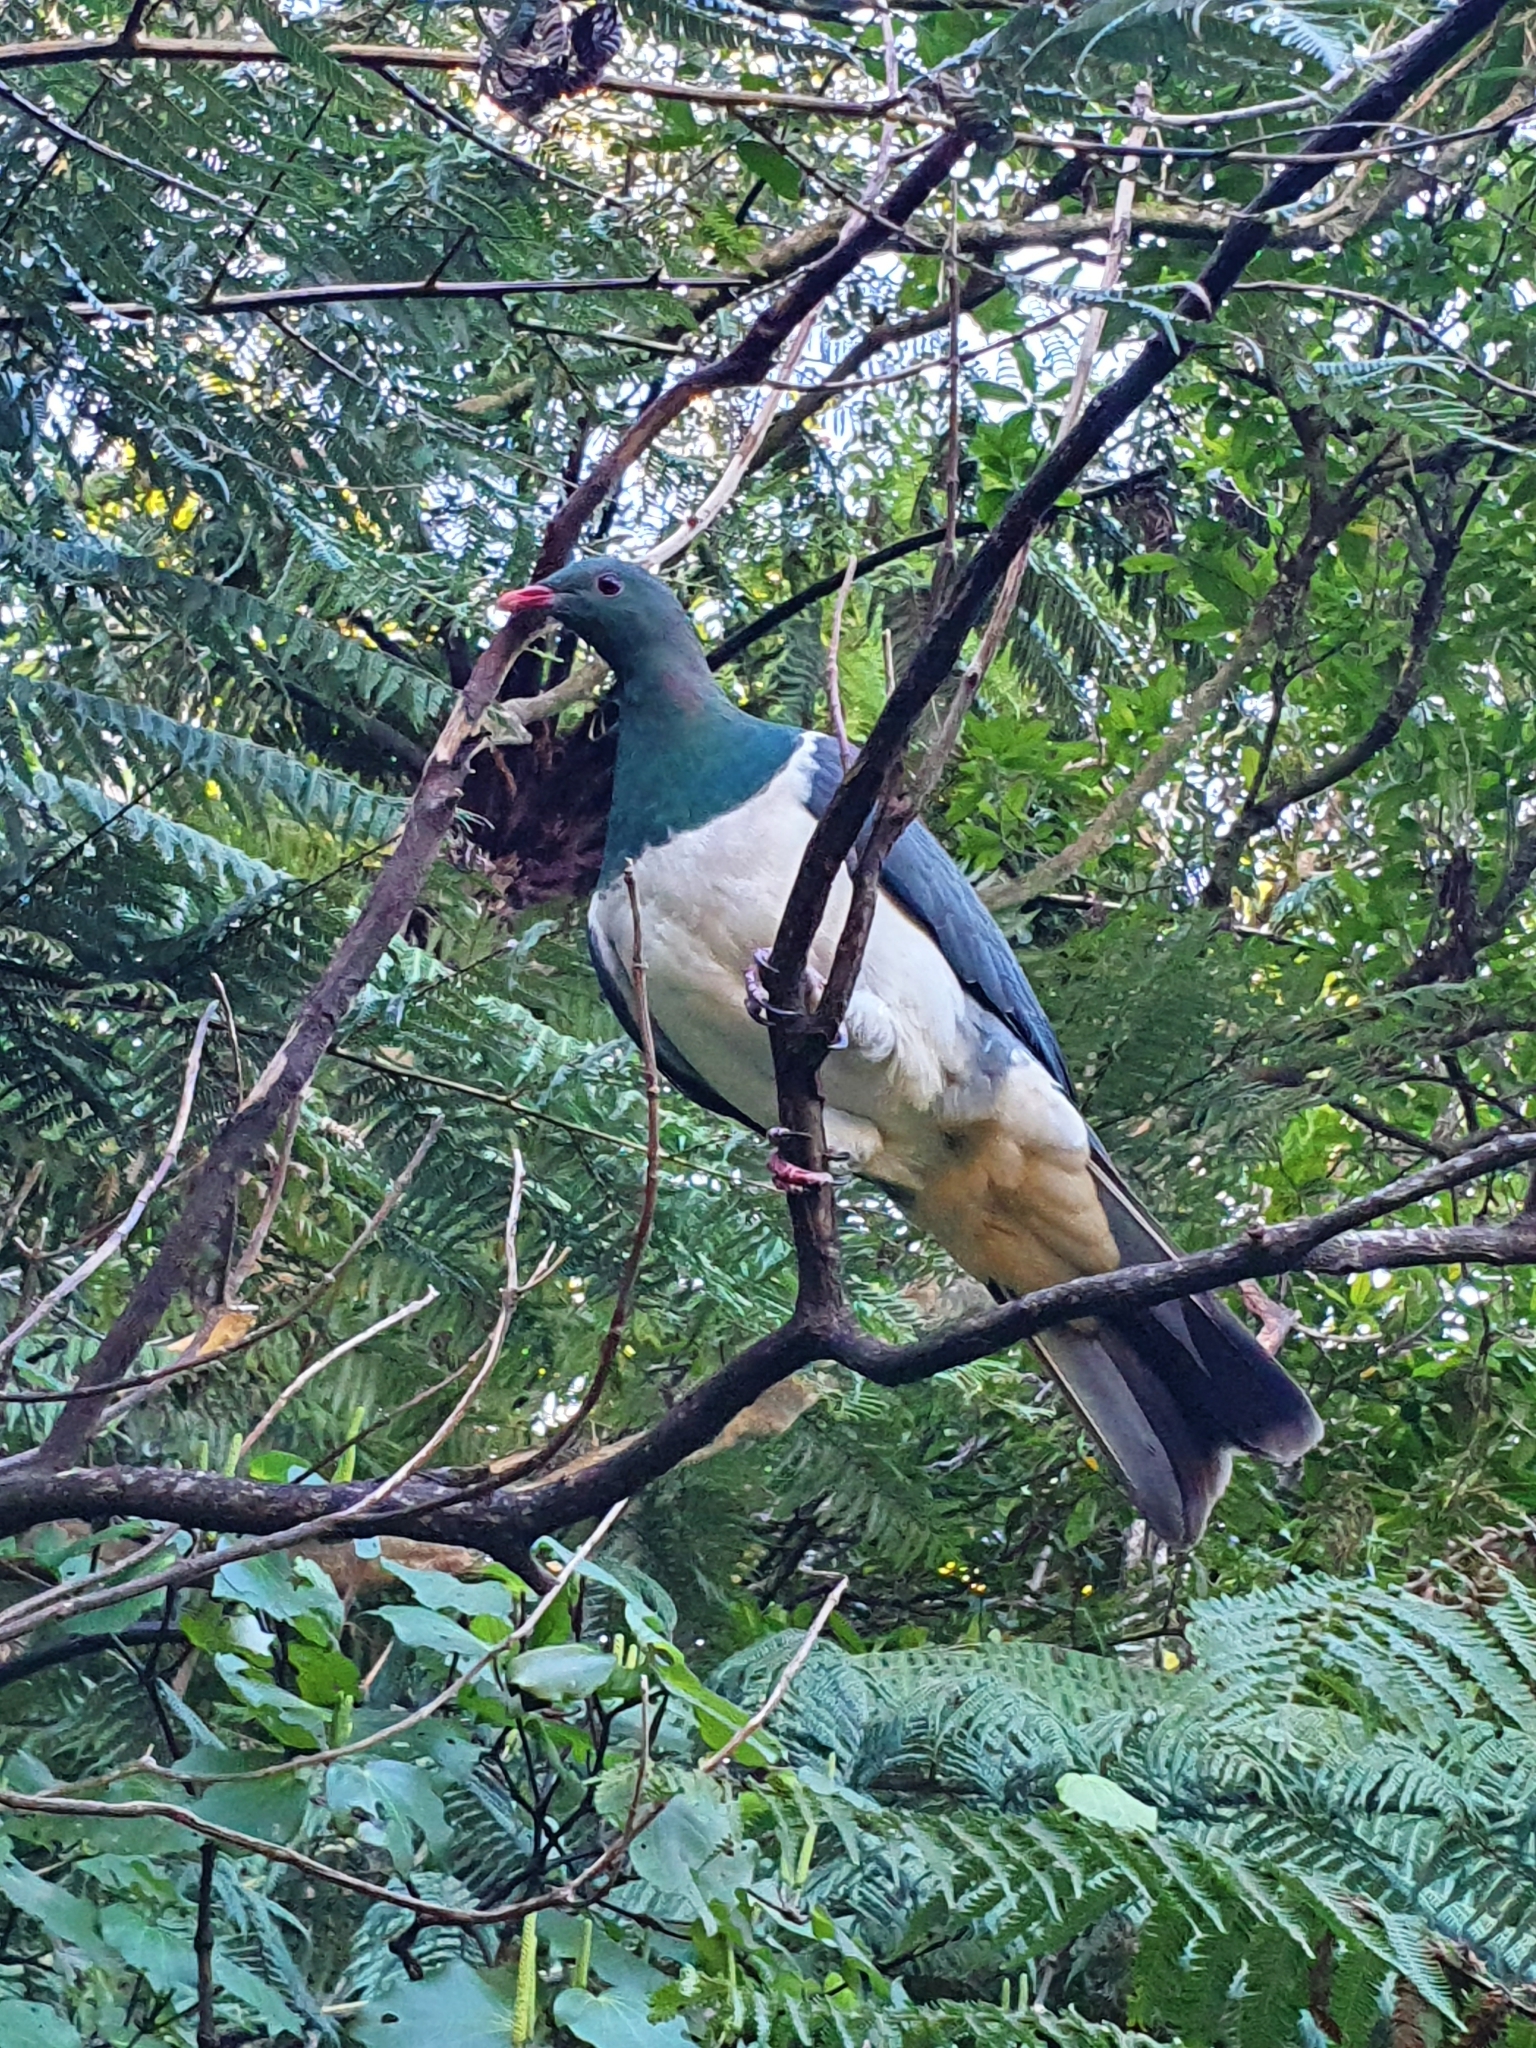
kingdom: Animalia
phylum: Chordata
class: Aves
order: Columbiformes
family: Columbidae
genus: Hemiphaga
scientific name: Hemiphaga novaeseelandiae
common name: New zealand pigeon
